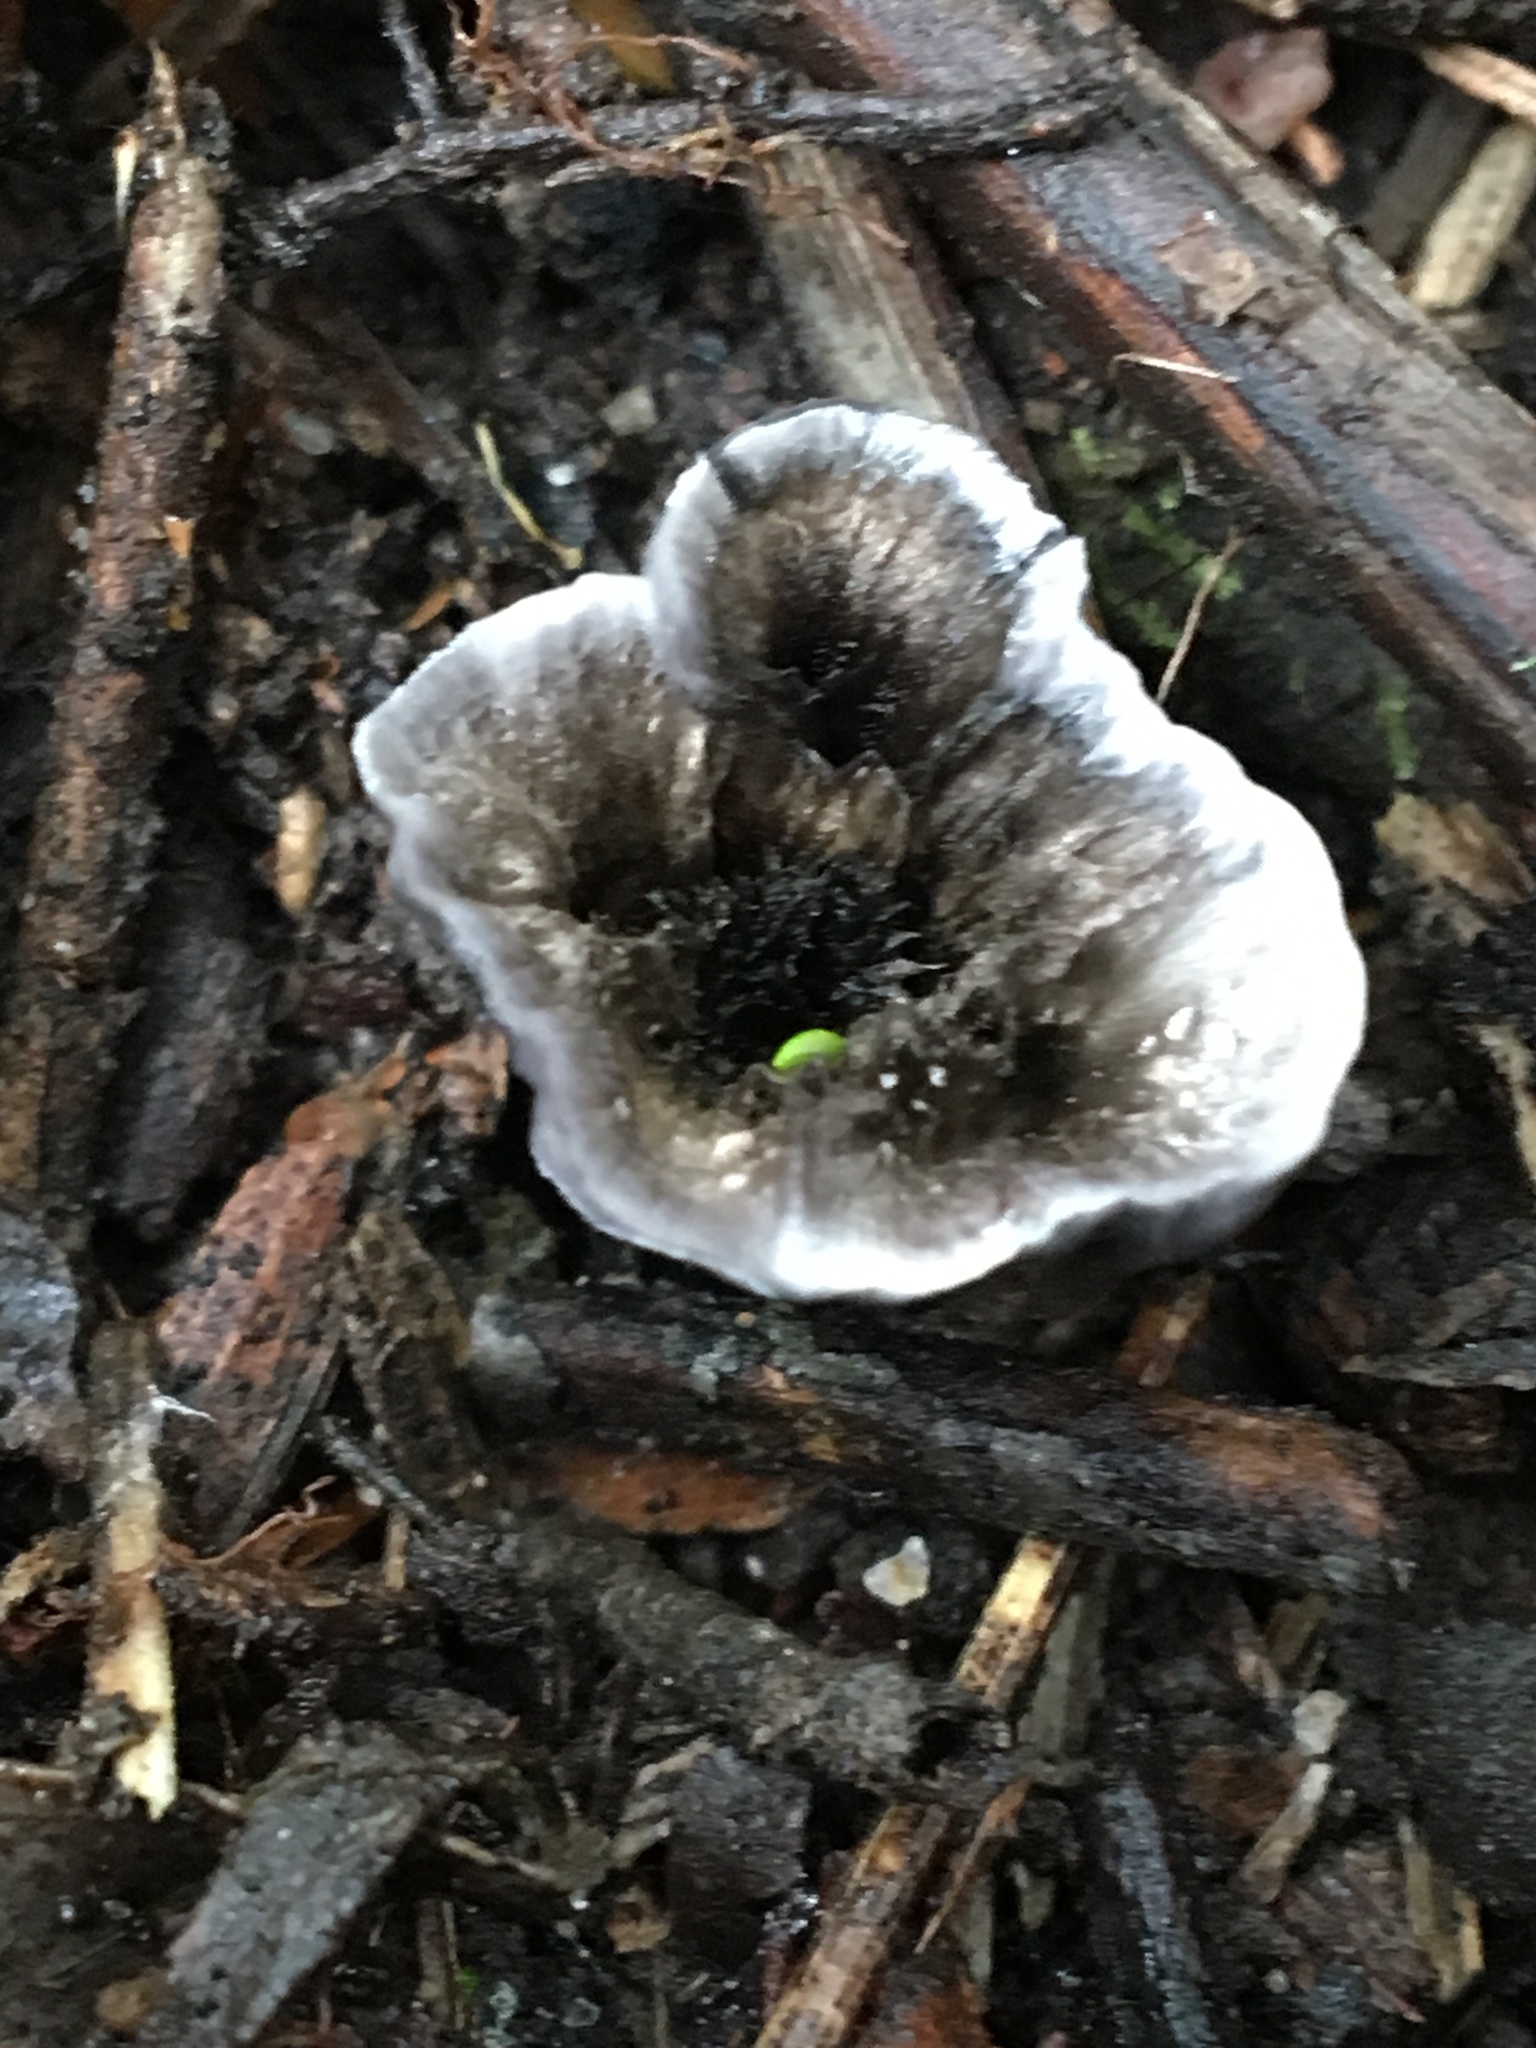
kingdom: Fungi
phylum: Basidiomycota
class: Agaricomycetes
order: Thelephorales
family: Thelephoraceae
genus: Phellodon
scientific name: Phellodon niger
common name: Black tooth
